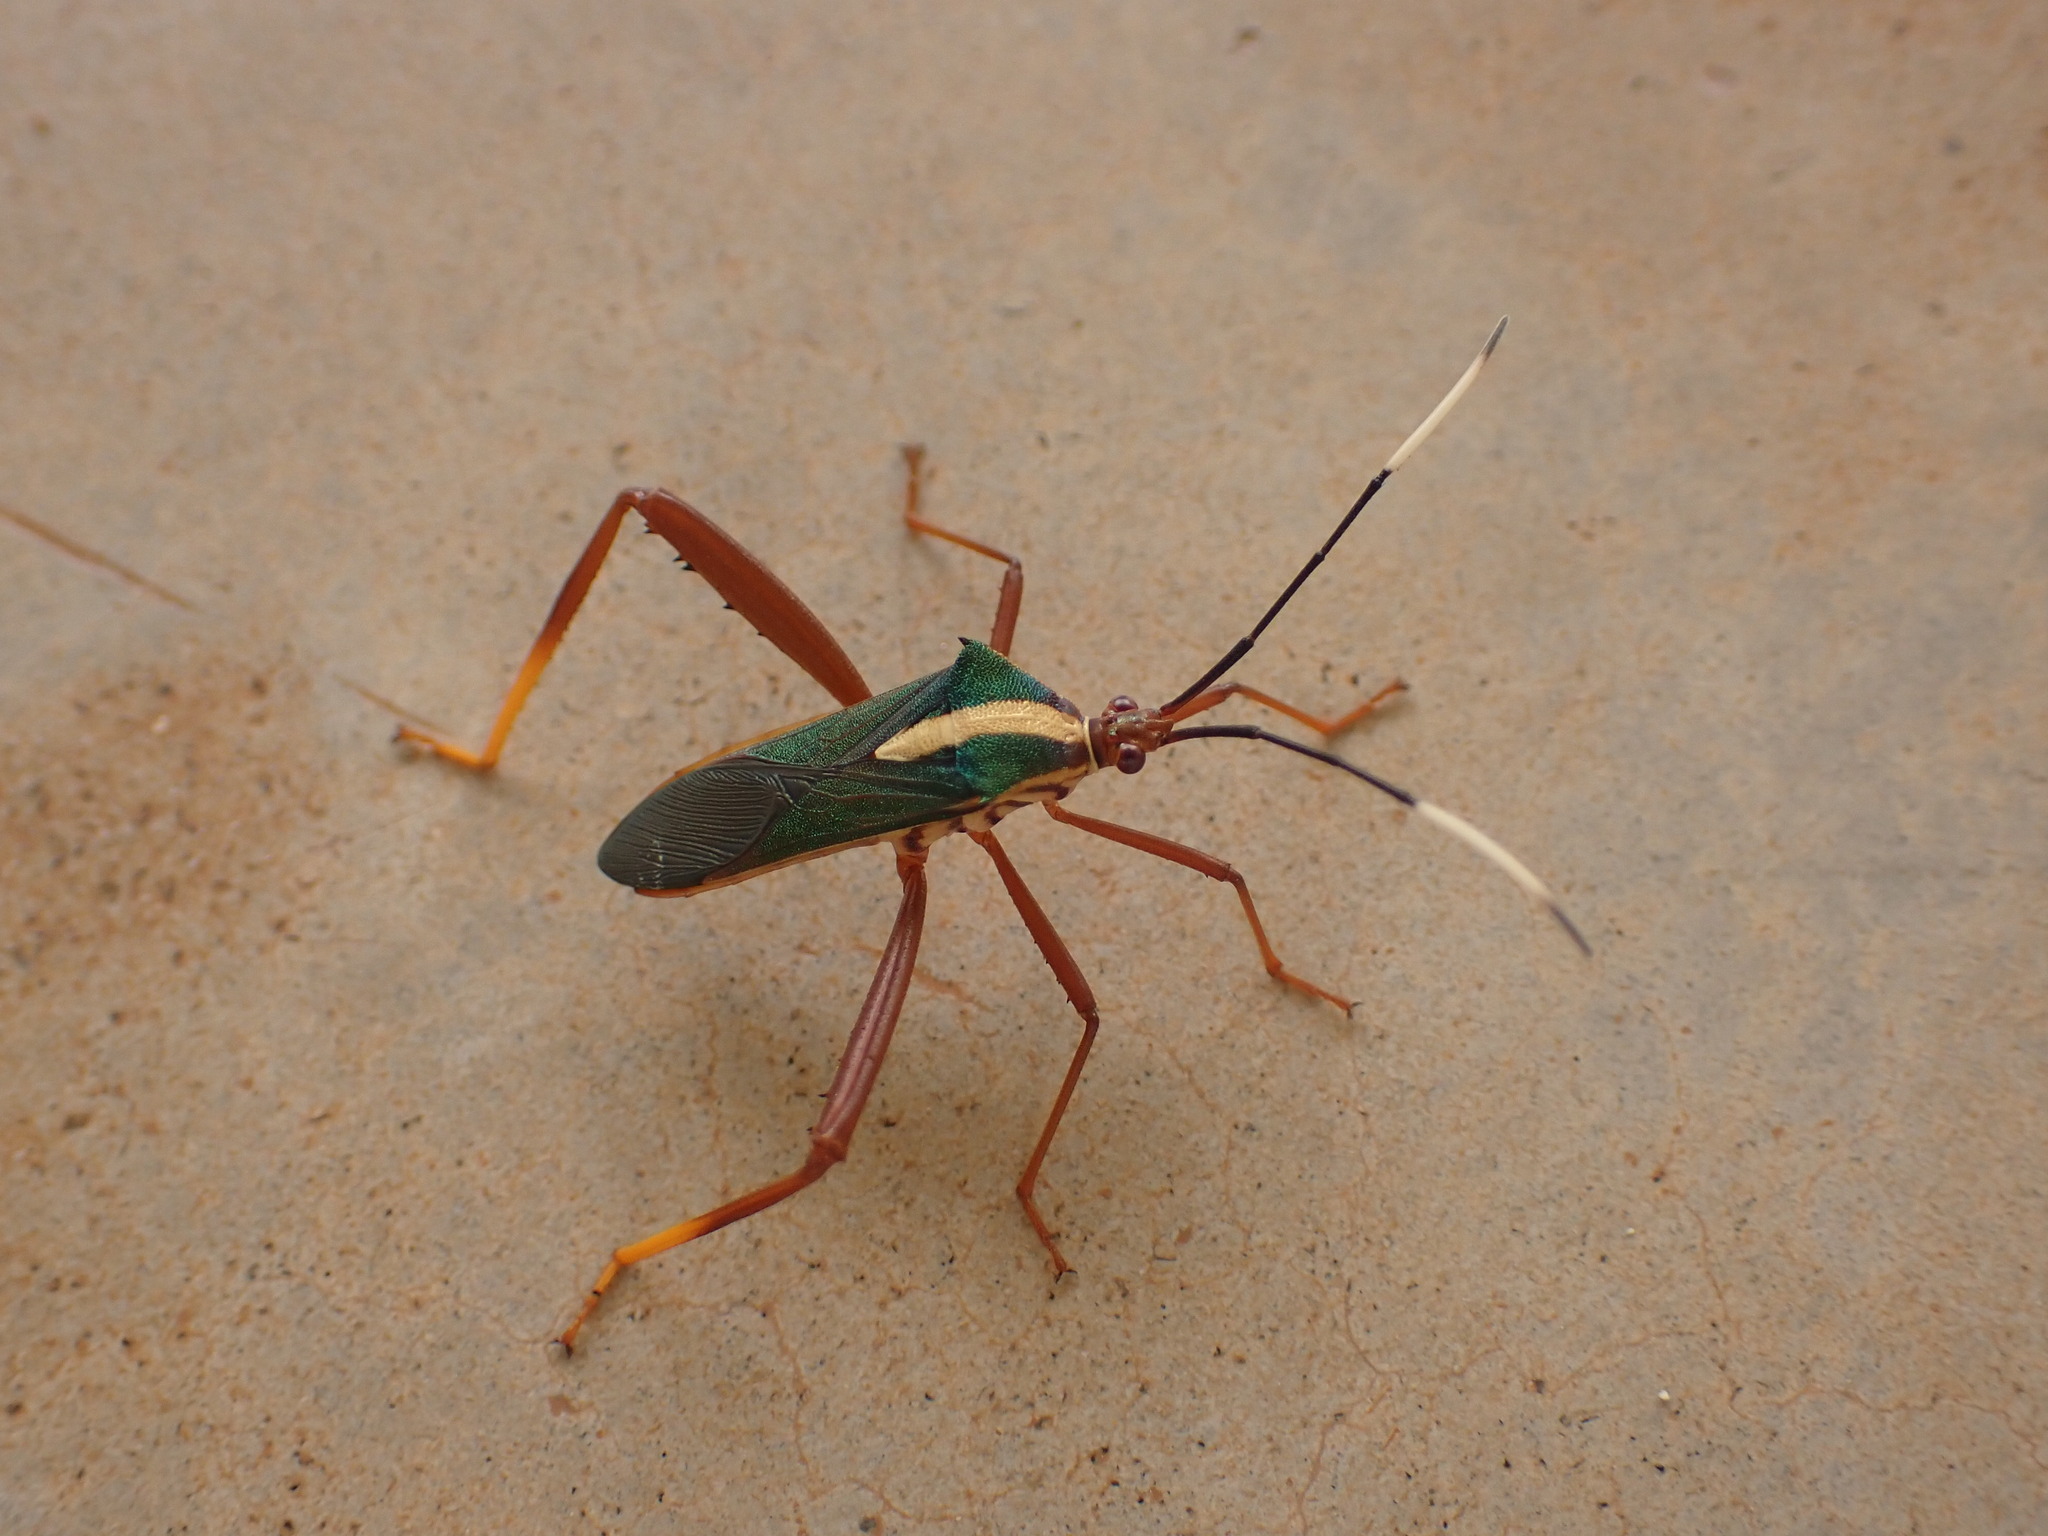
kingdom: Animalia
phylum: Arthropoda
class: Insecta
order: Hemiptera
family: Coreidae
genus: Lucullia
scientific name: Lucullia flavovittata
